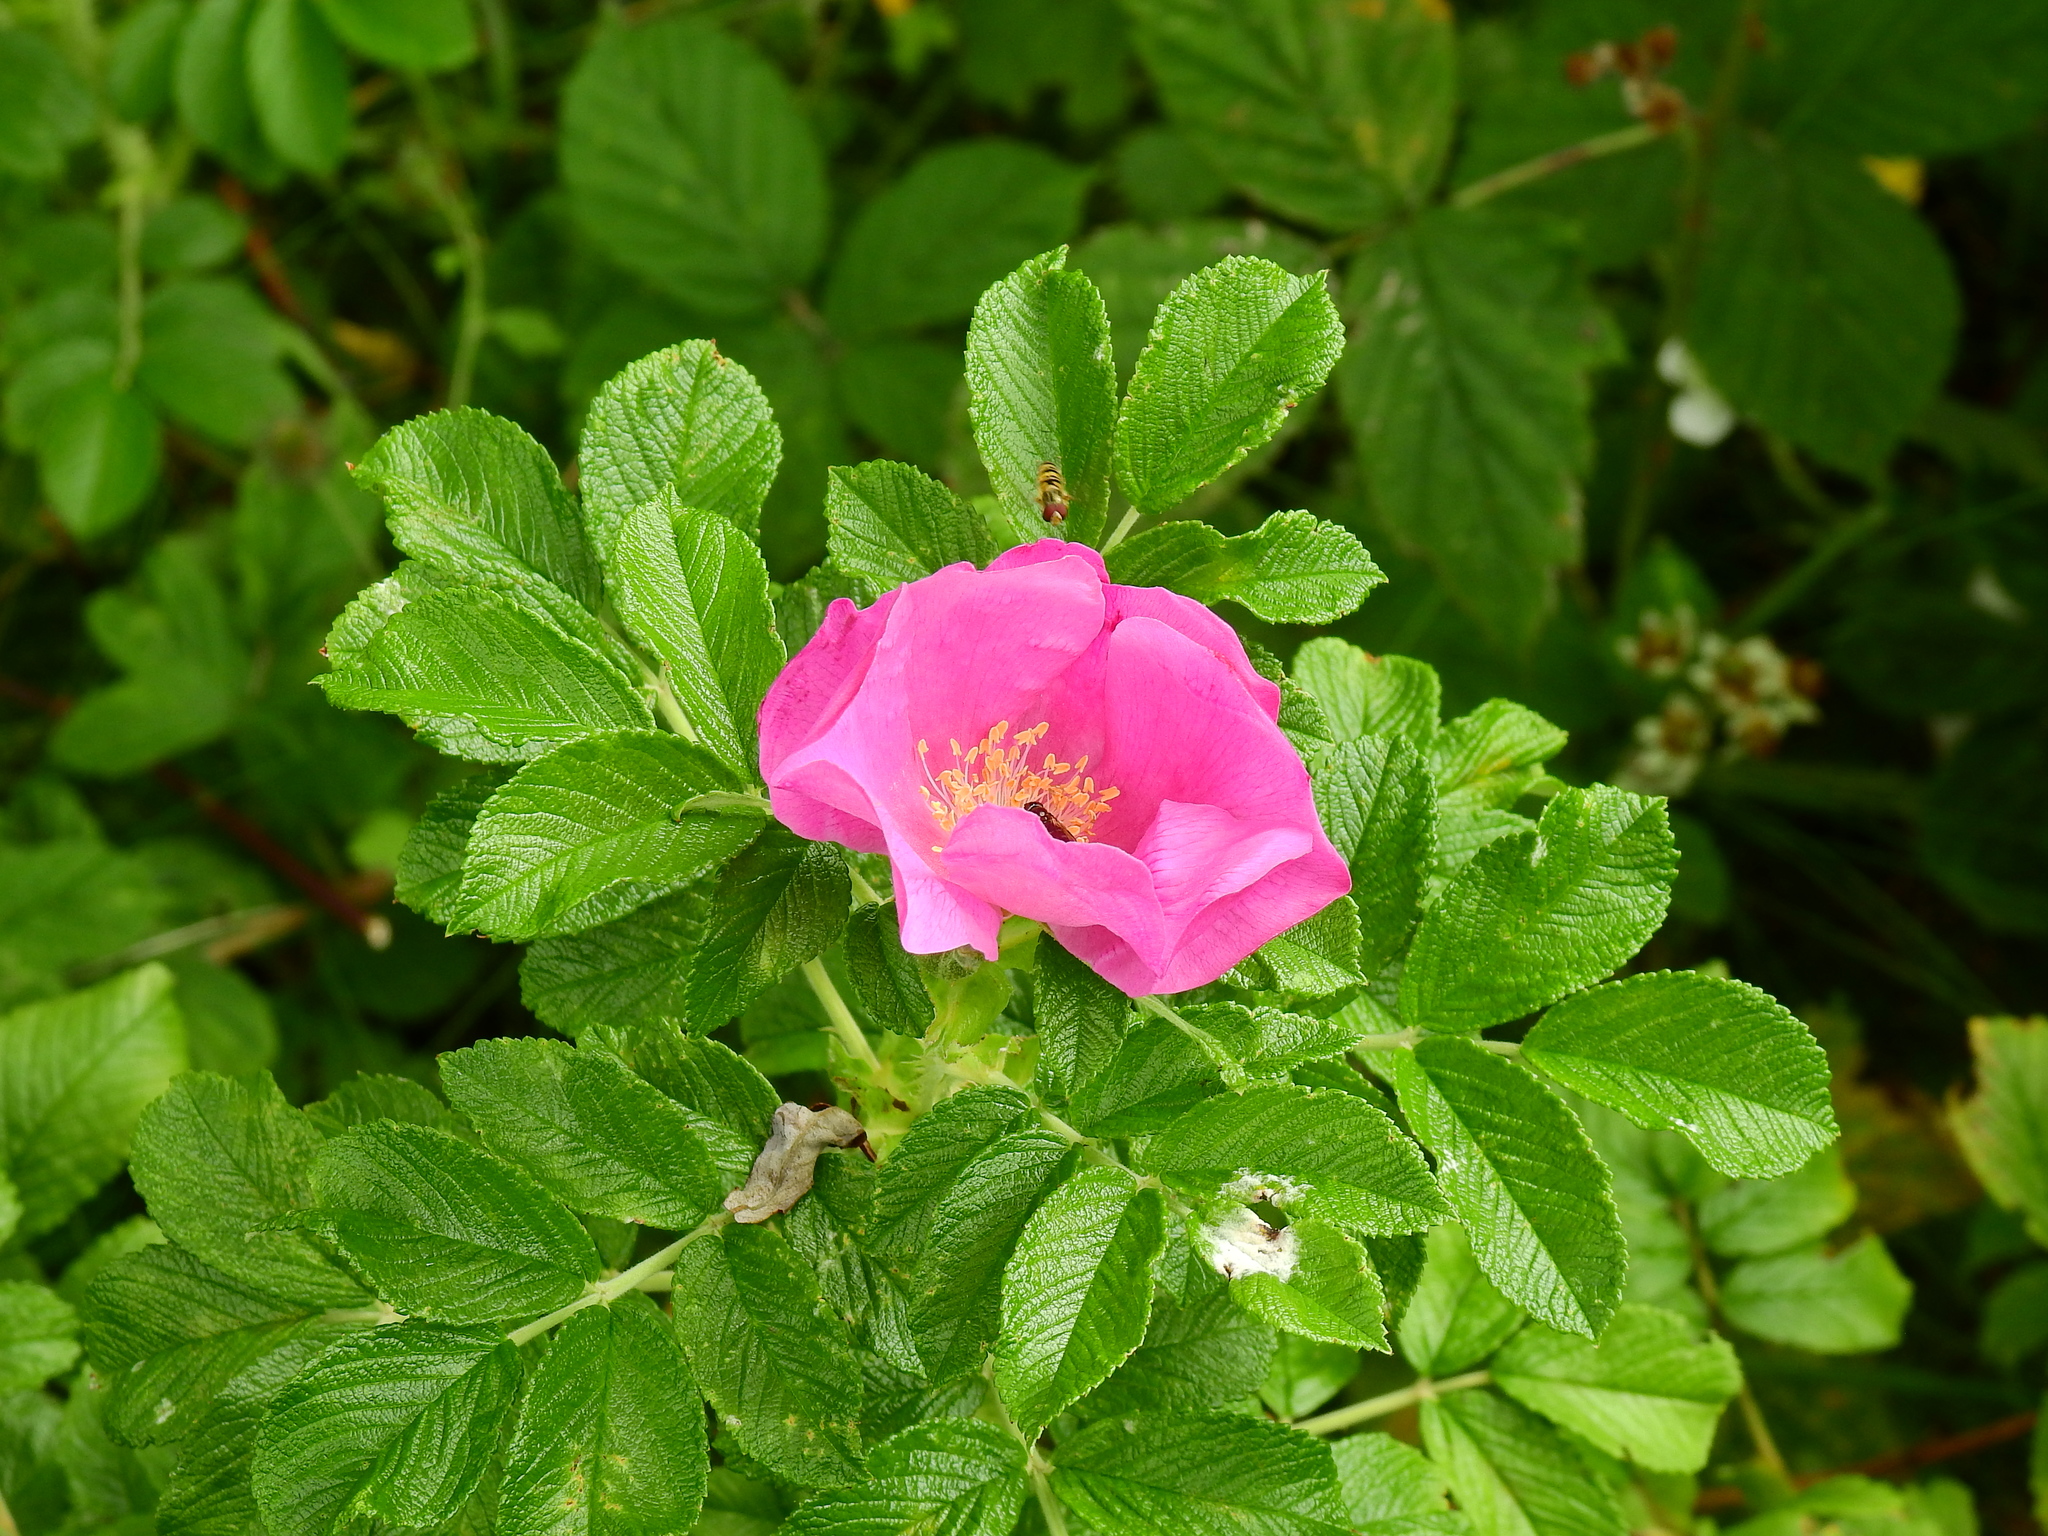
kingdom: Plantae
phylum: Tracheophyta
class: Magnoliopsida
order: Rosales
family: Rosaceae
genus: Rosa
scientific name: Rosa rugosa
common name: Japanese rose
